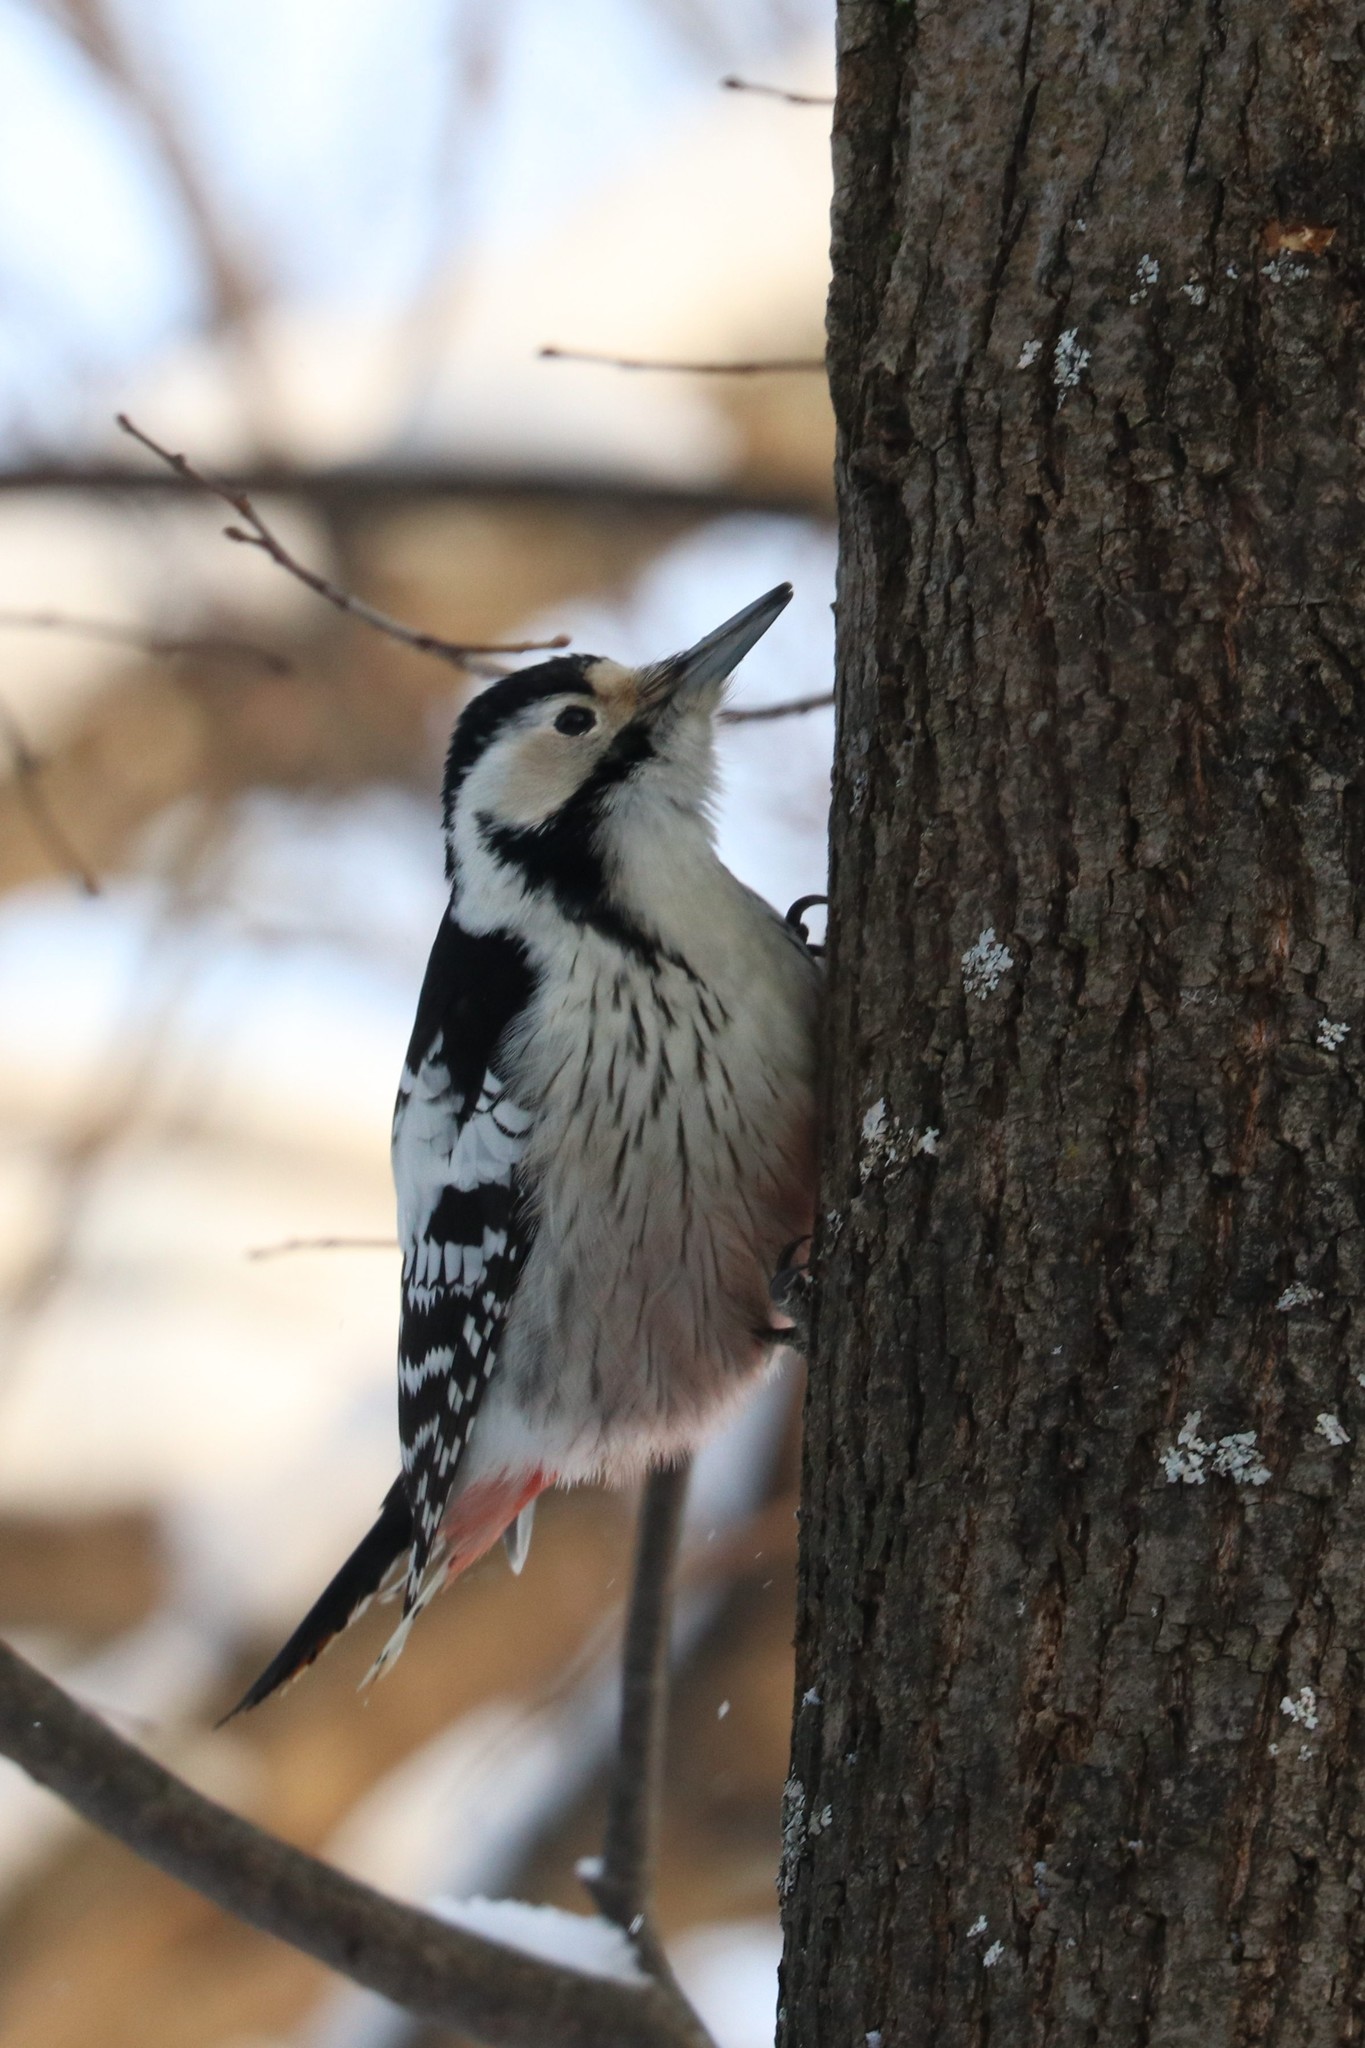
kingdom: Animalia
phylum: Chordata
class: Aves
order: Piciformes
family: Picidae
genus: Dendrocopos
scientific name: Dendrocopos leucotos
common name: White-backed woodpecker
